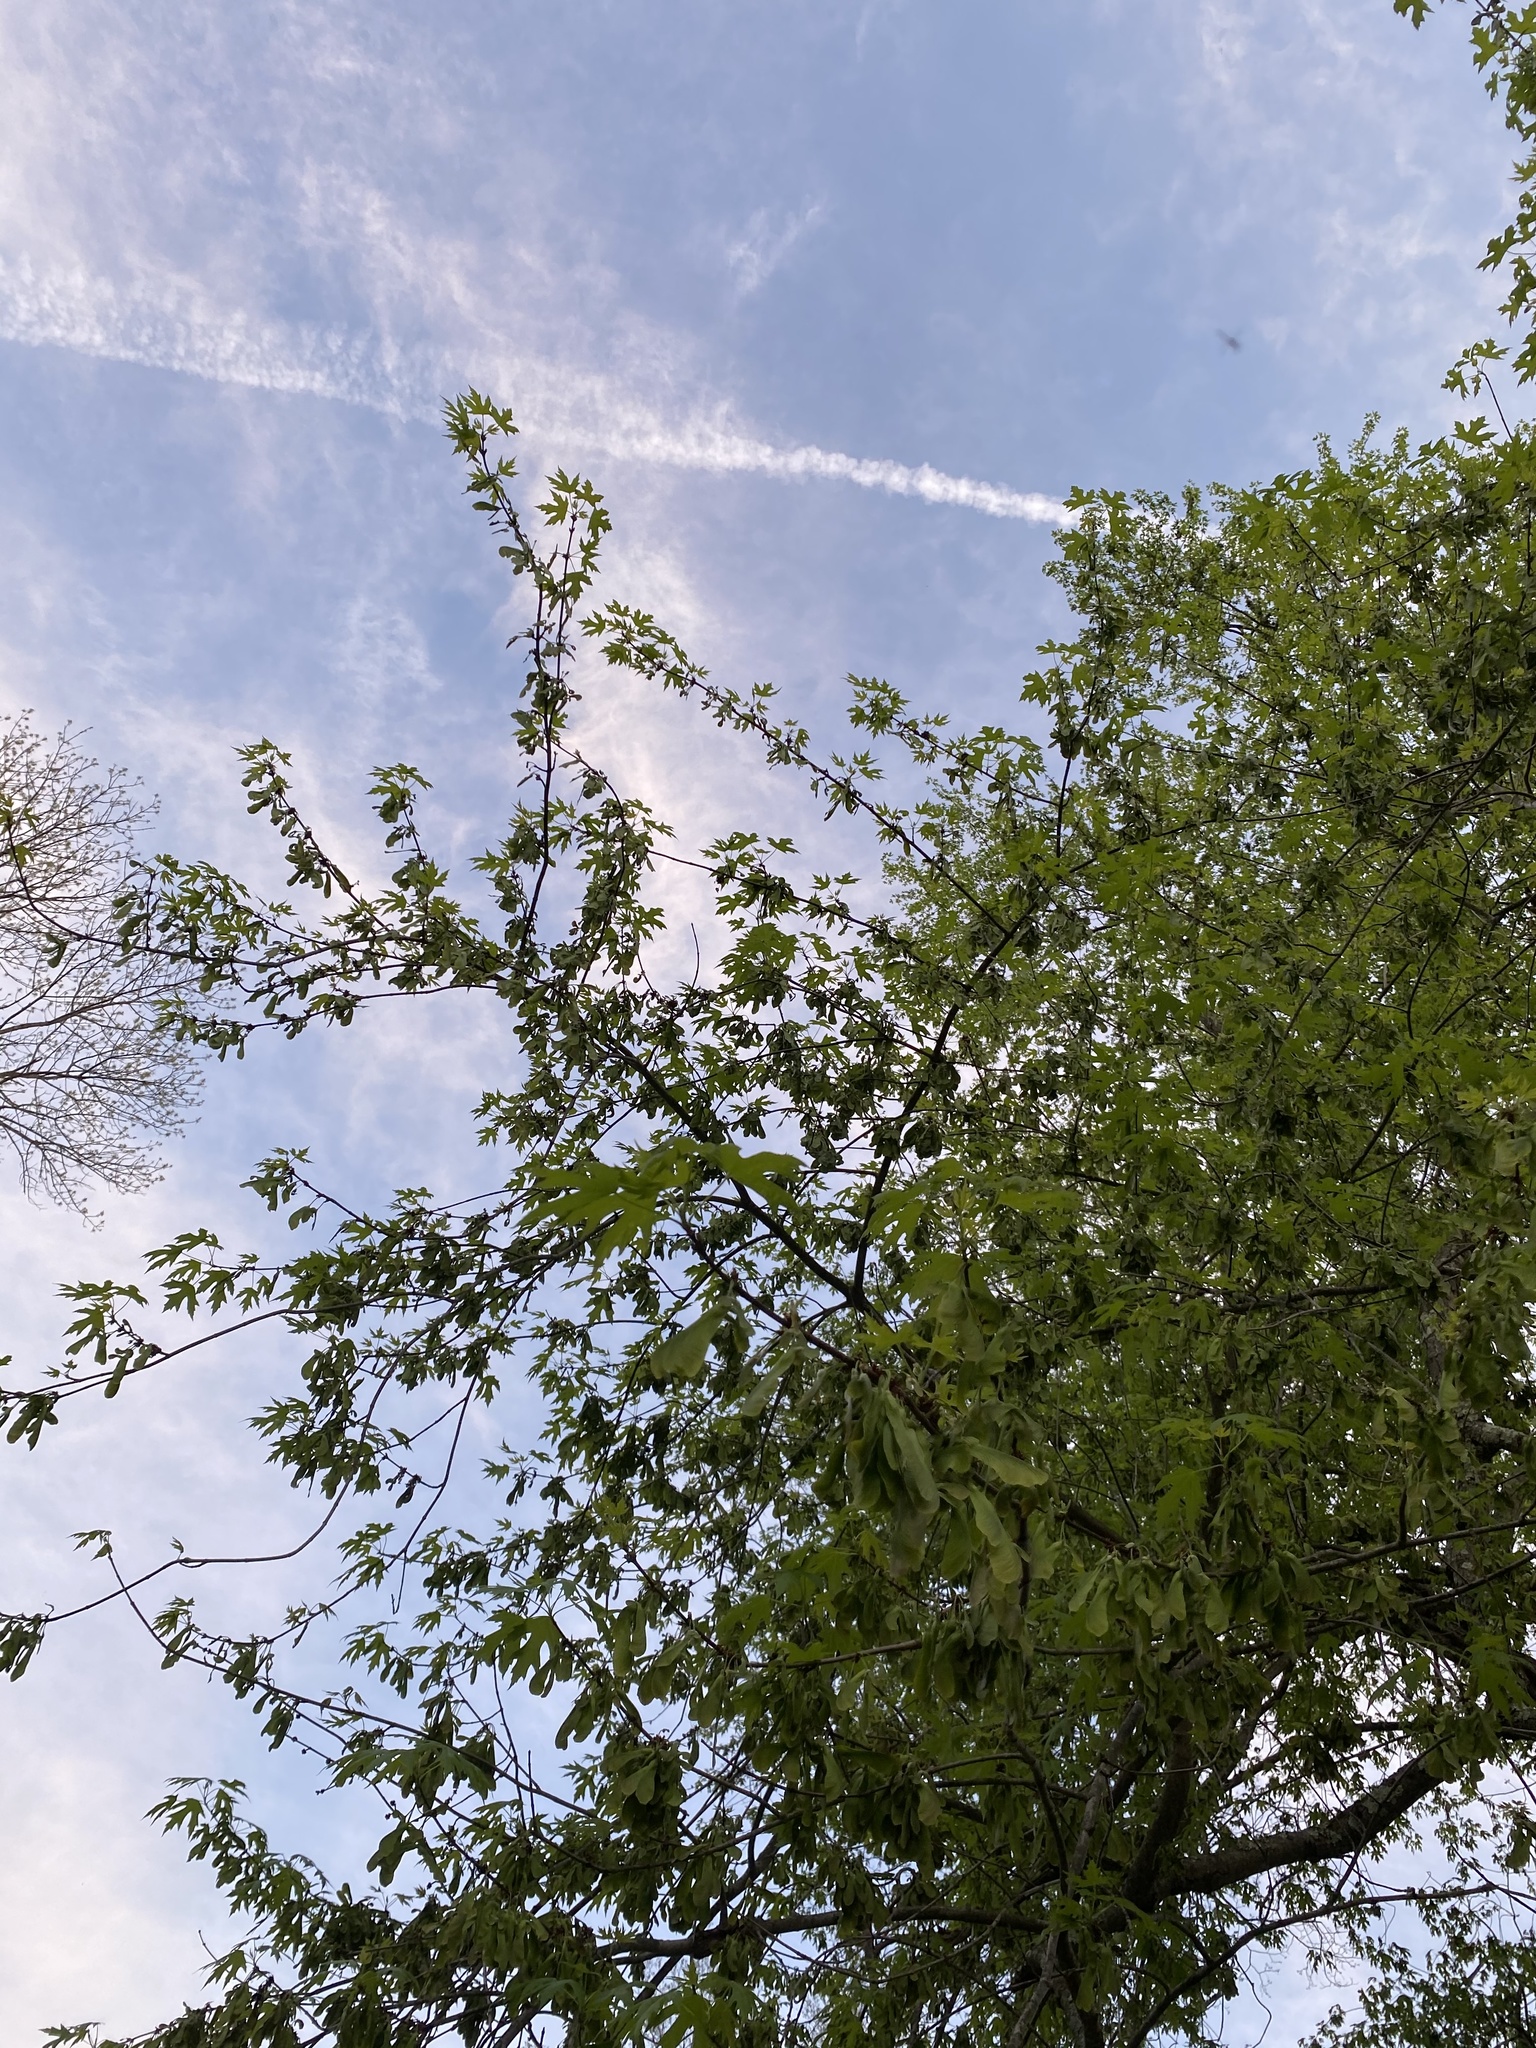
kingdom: Plantae
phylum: Tracheophyta
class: Magnoliopsida
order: Sapindales
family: Sapindaceae
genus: Acer
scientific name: Acer saccharinum
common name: Silver maple
